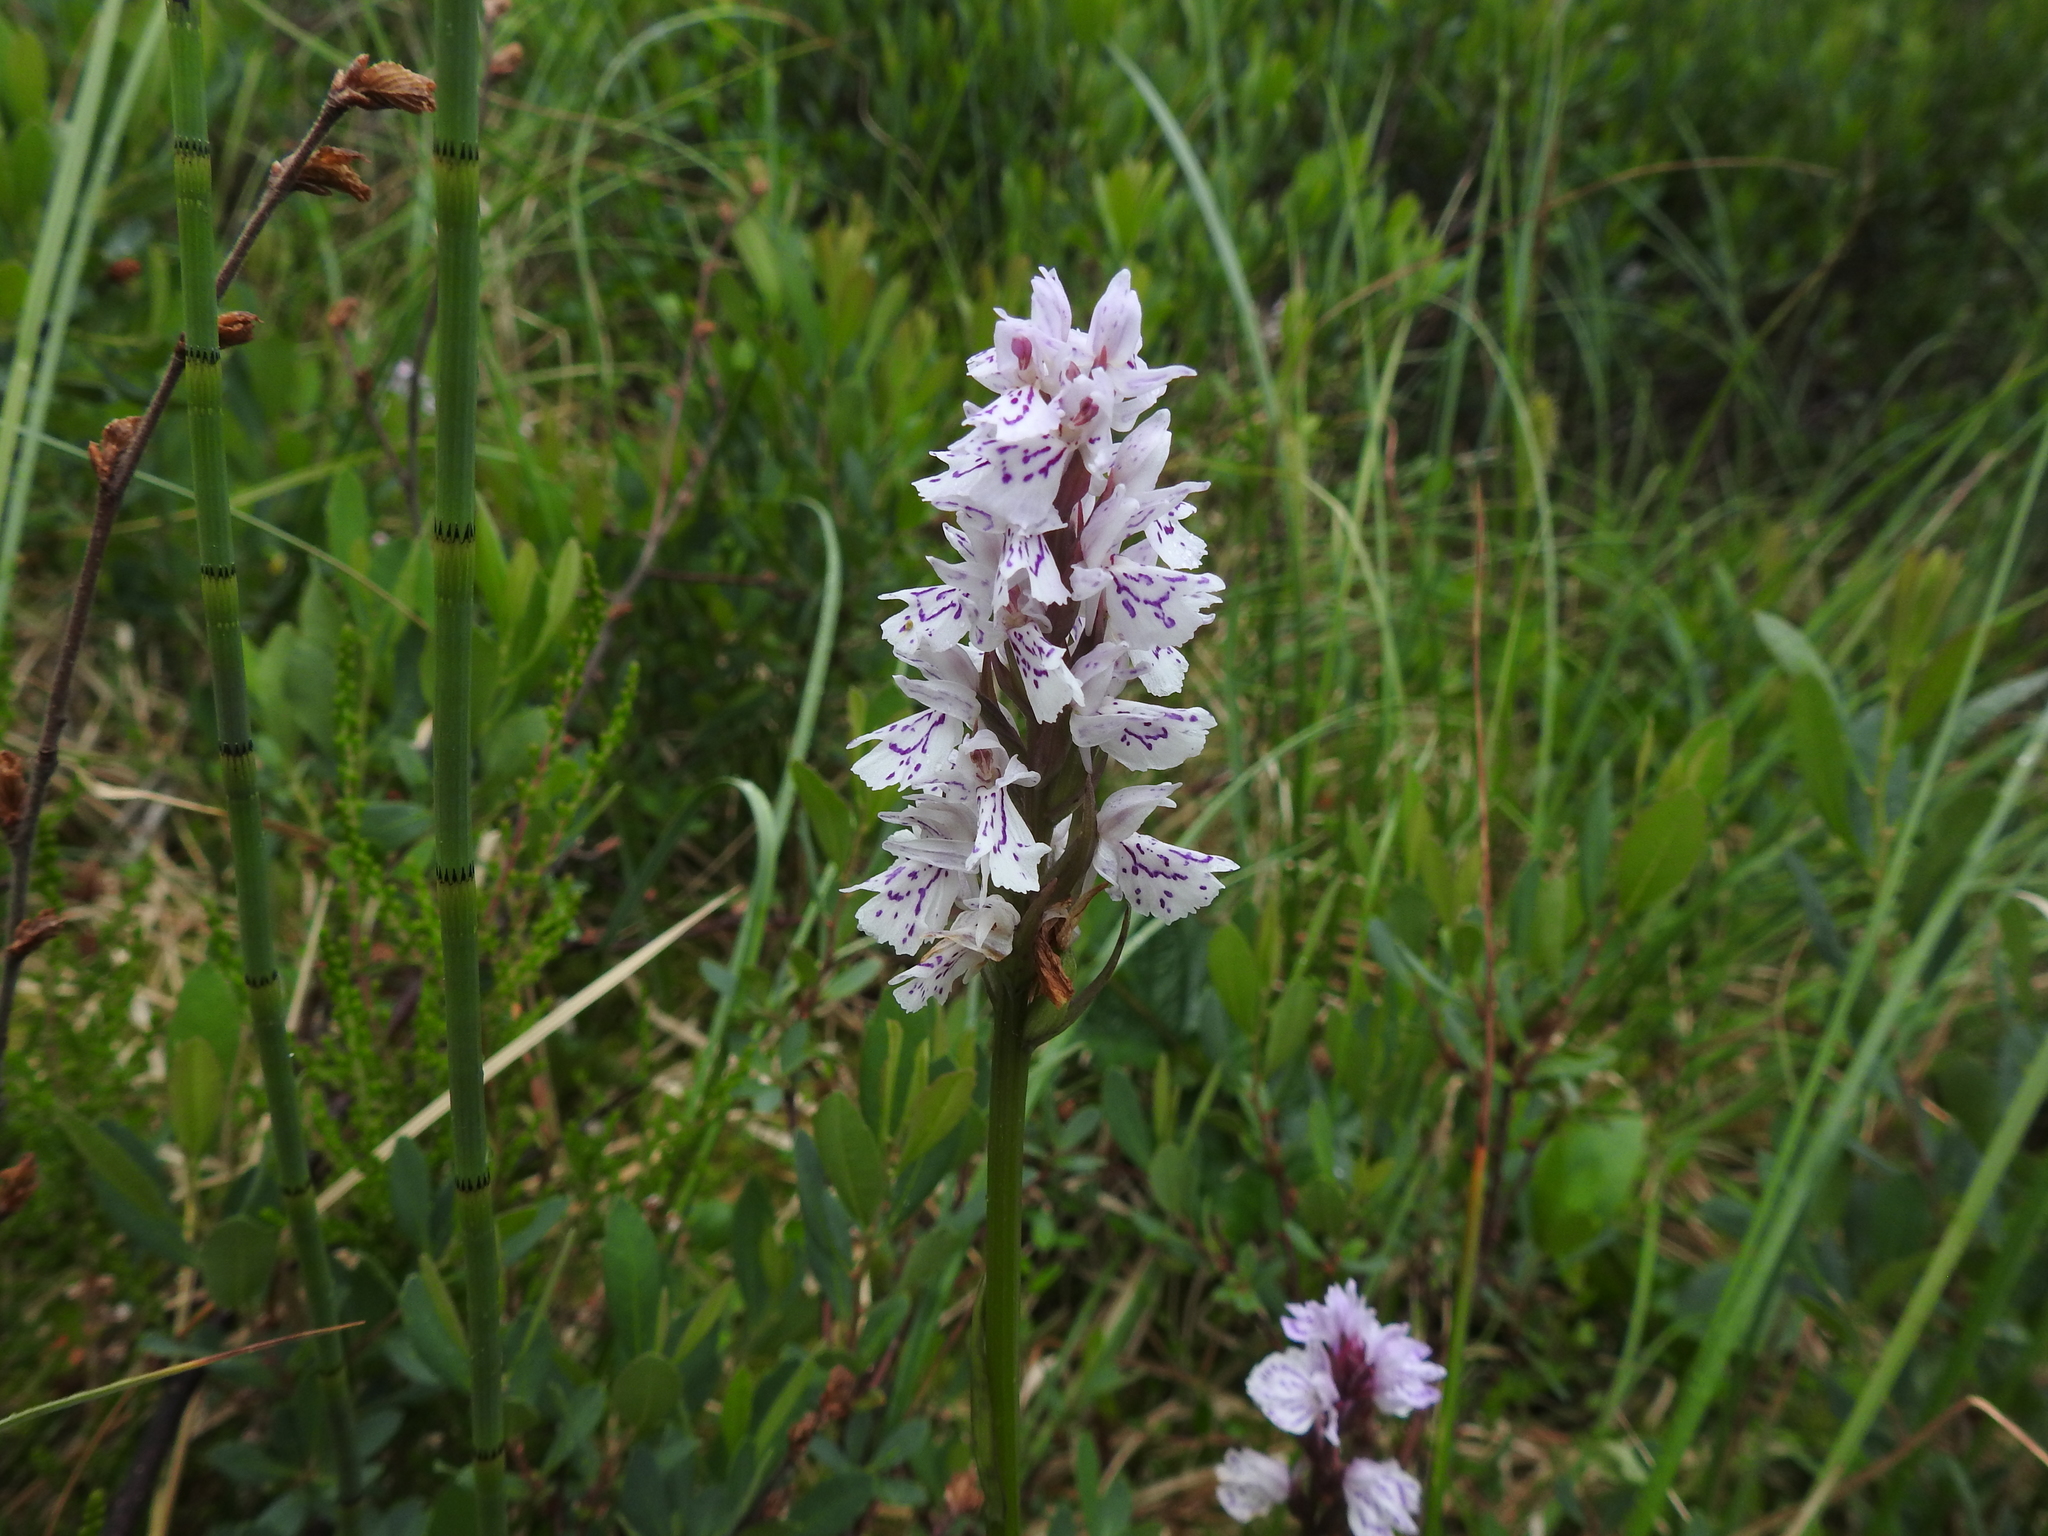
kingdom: Plantae
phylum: Tracheophyta
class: Liliopsida
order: Asparagales
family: Orchidaceae
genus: Dactylorhiza
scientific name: Dactylorhiza maculata
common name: Heath spotted-orchid
